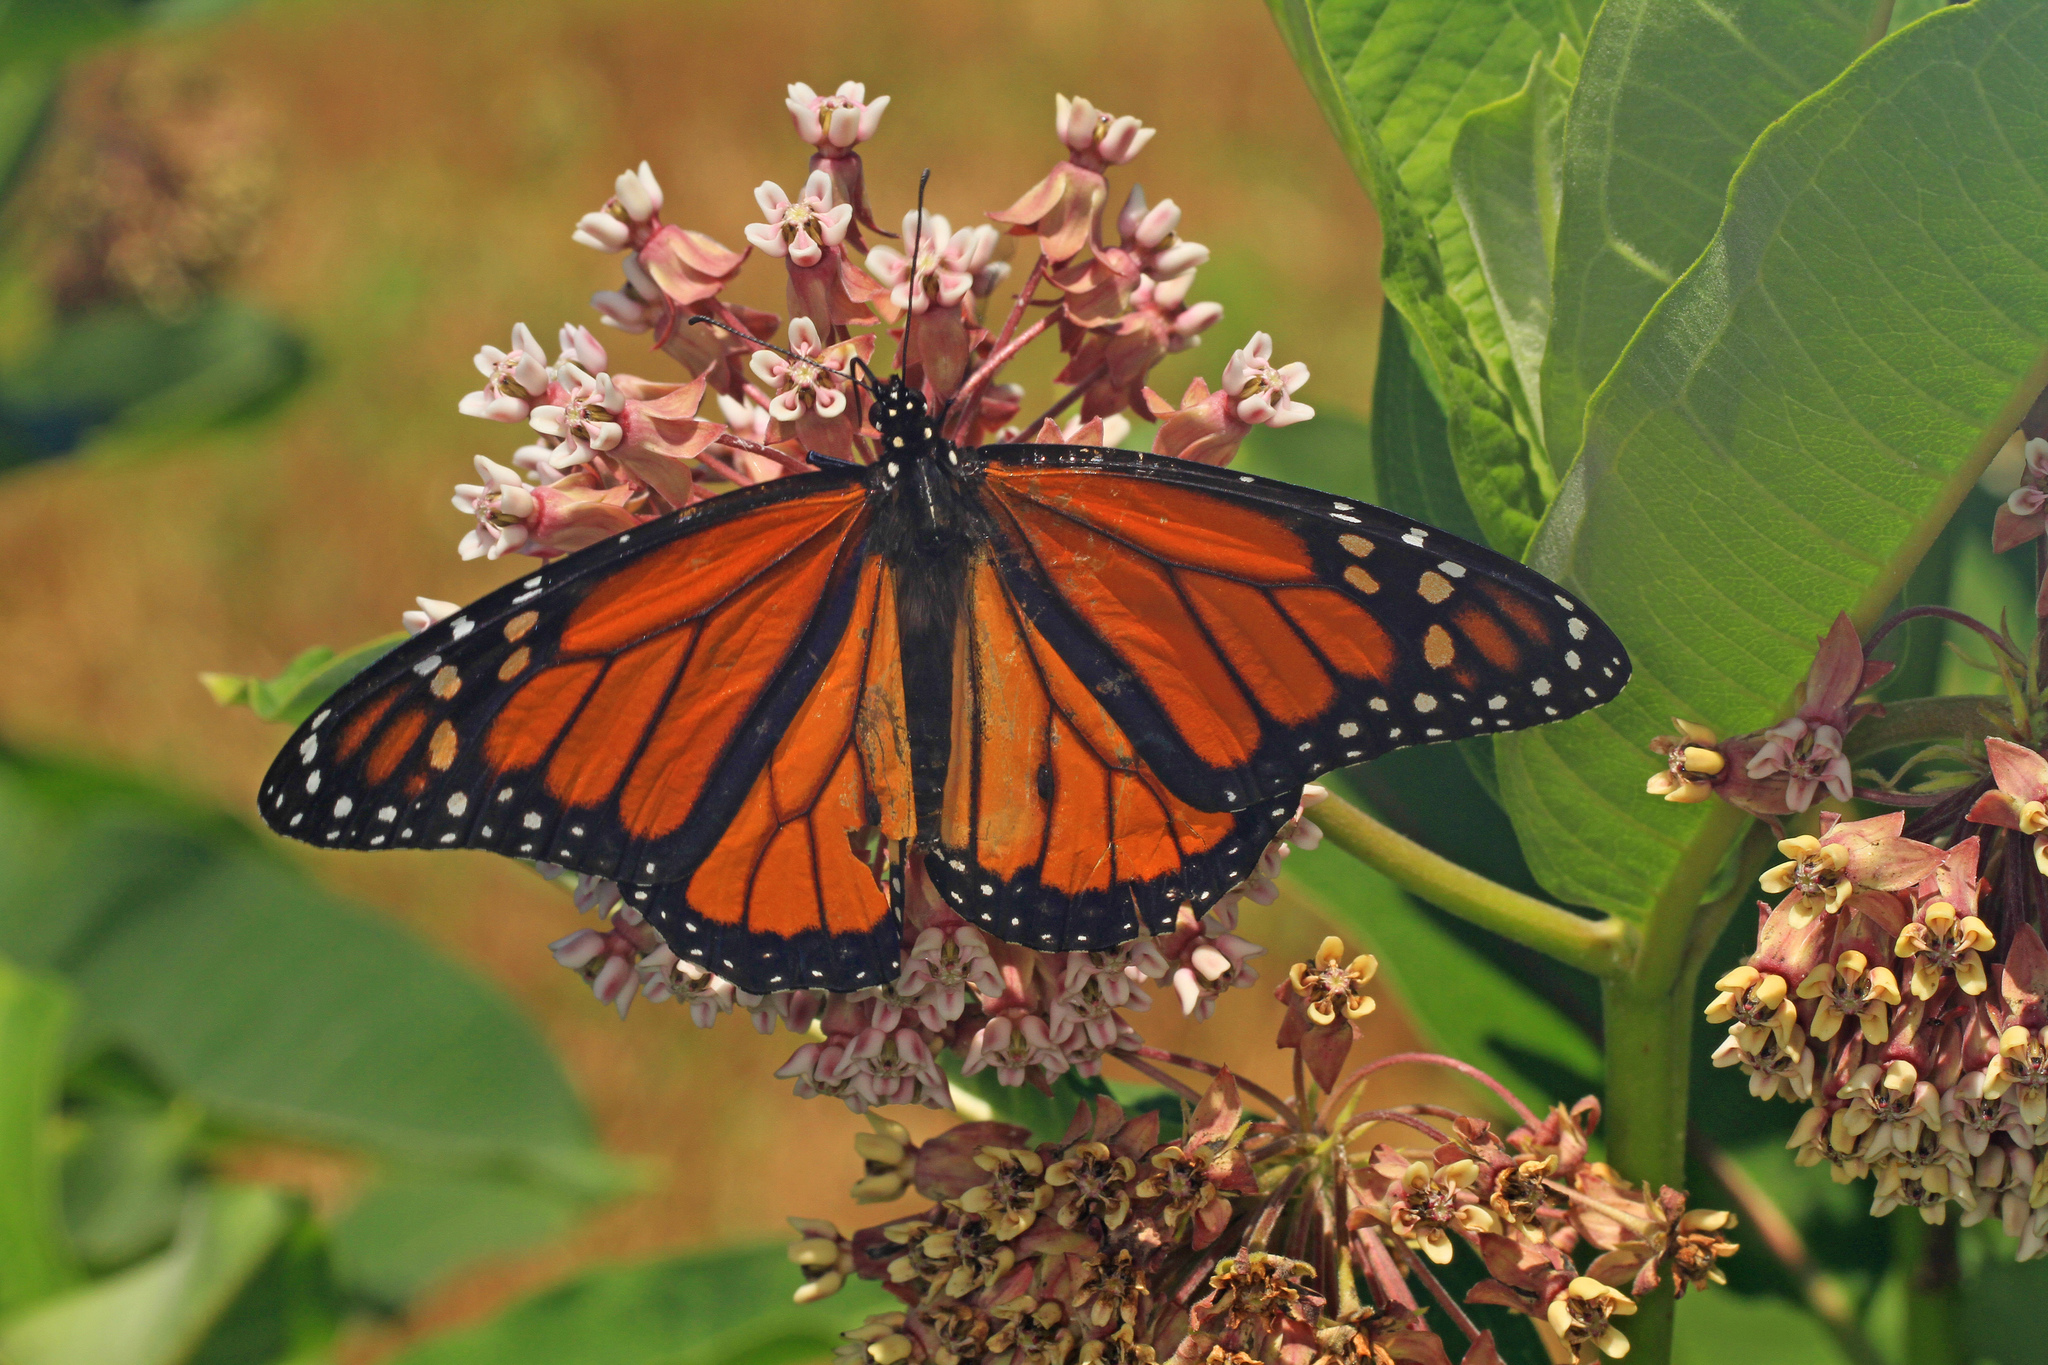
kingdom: Animalia
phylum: Arthropoda
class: Insecta
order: Lepidoptera
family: Nymphalidae
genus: Danaus
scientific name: Danaus plexippus
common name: Monarch
